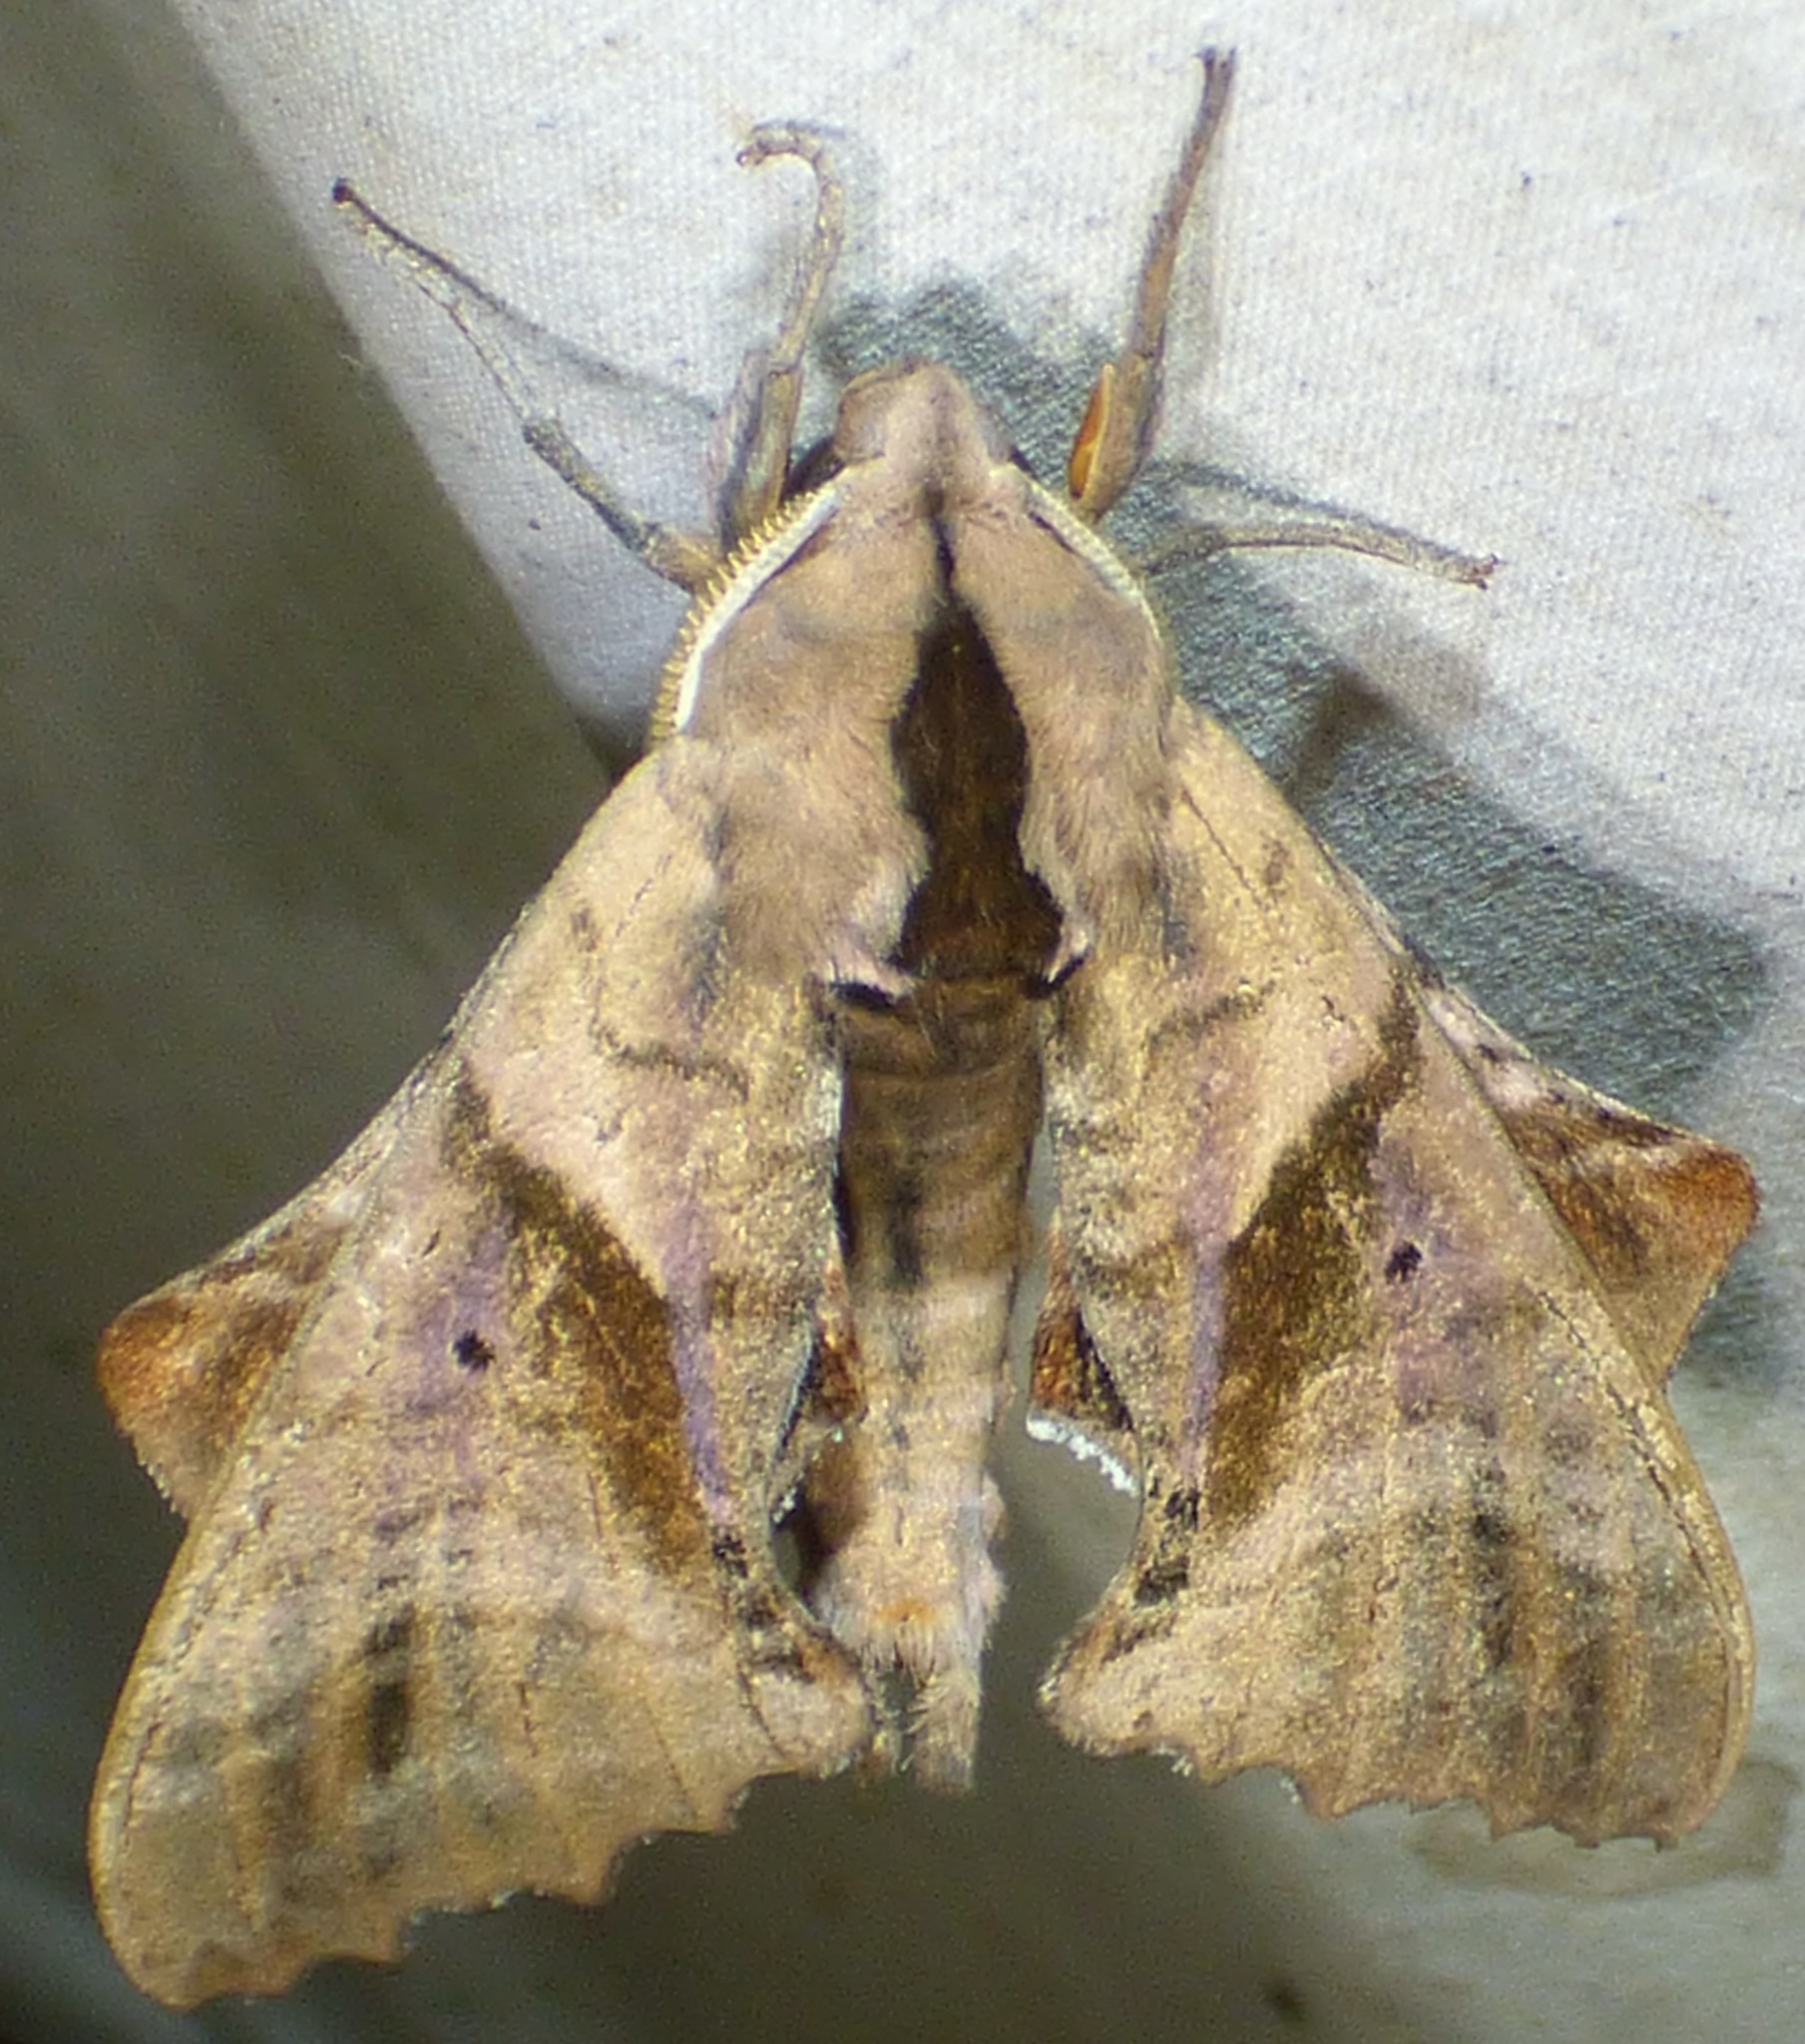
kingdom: Animalia
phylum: Arthropoda
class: Insecta
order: Lepidoptera
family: Sphingidae
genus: Paonias
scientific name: Paonias excaecata
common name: Blind-eyed sphinx
